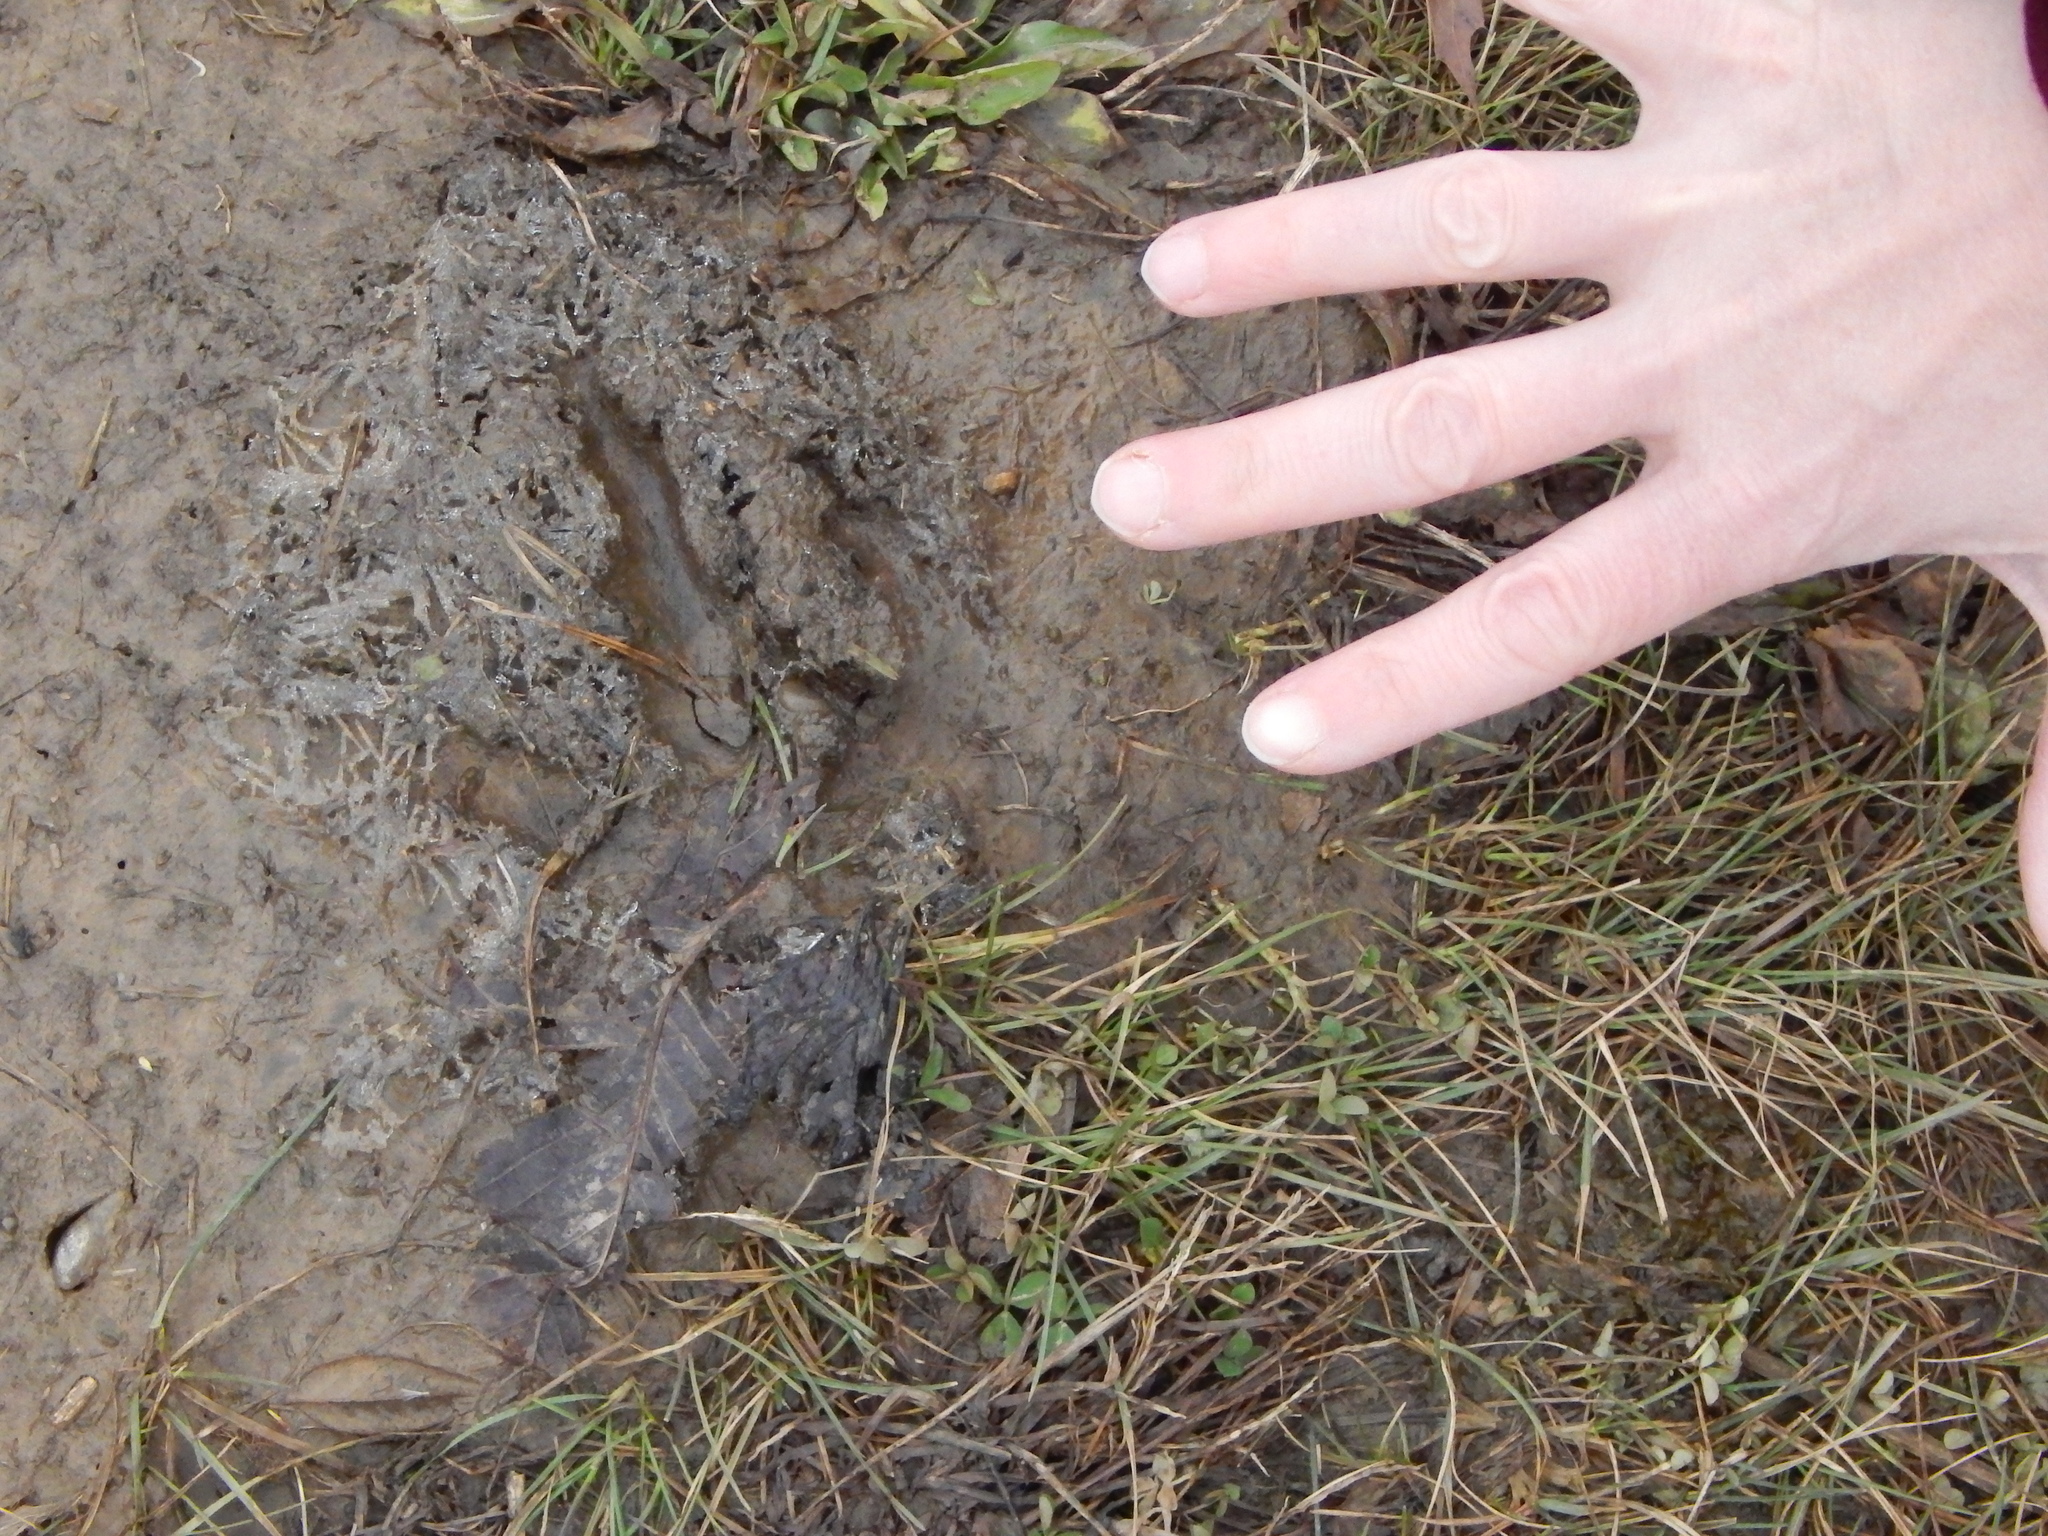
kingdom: Animalia
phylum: Chordata
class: Aves
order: Galliformes
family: Phasianidae
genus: Meleagris
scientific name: Meleagris gallopavo
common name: Wild turkey
